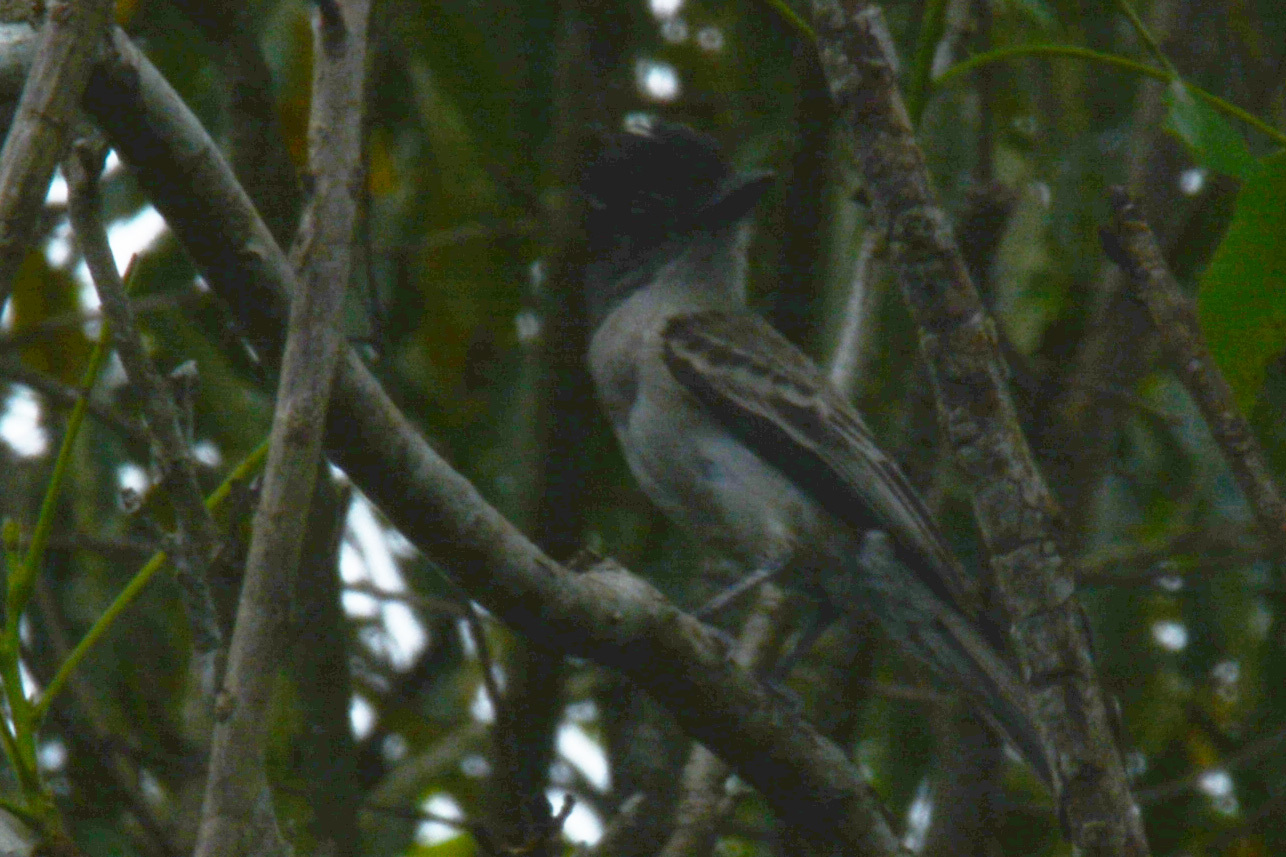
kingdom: Animalia
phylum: Chordata
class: Aves
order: Passeriformes
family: Tyrannidae
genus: Sirystes
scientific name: Sirystes sibilator
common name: Sirystes
